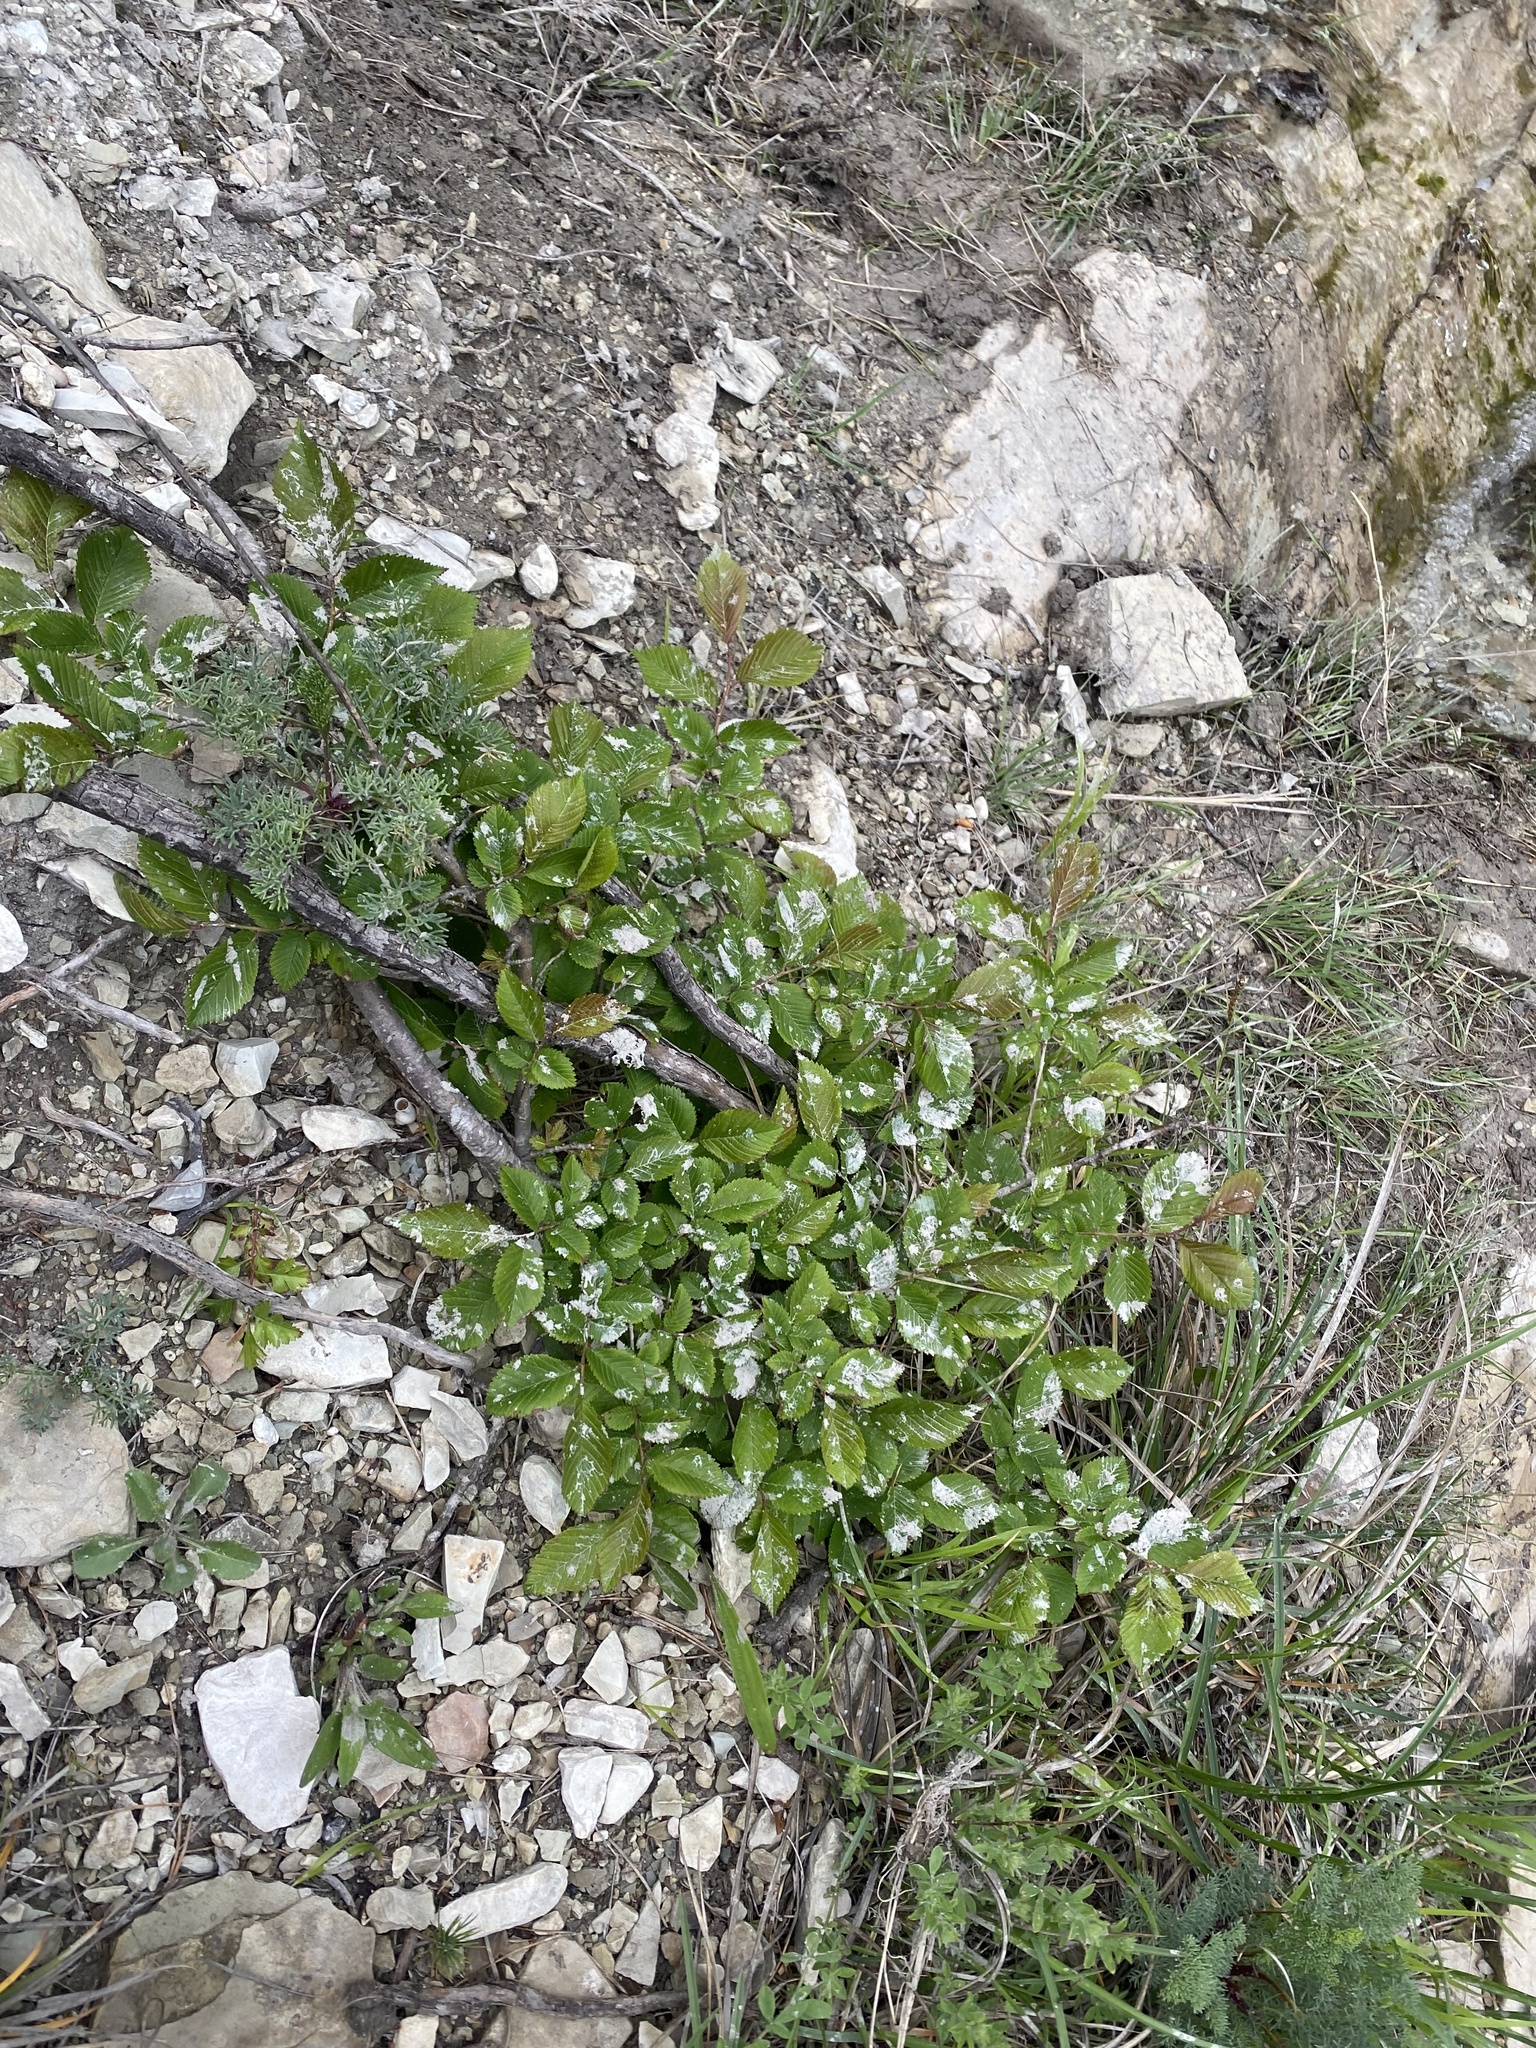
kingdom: Plantae
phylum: Tracheophyta
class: Magnoliopsida
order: Rosales
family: Ulmaceae
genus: Ulmus
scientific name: Ulmus minor
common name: Small-leaved elm
